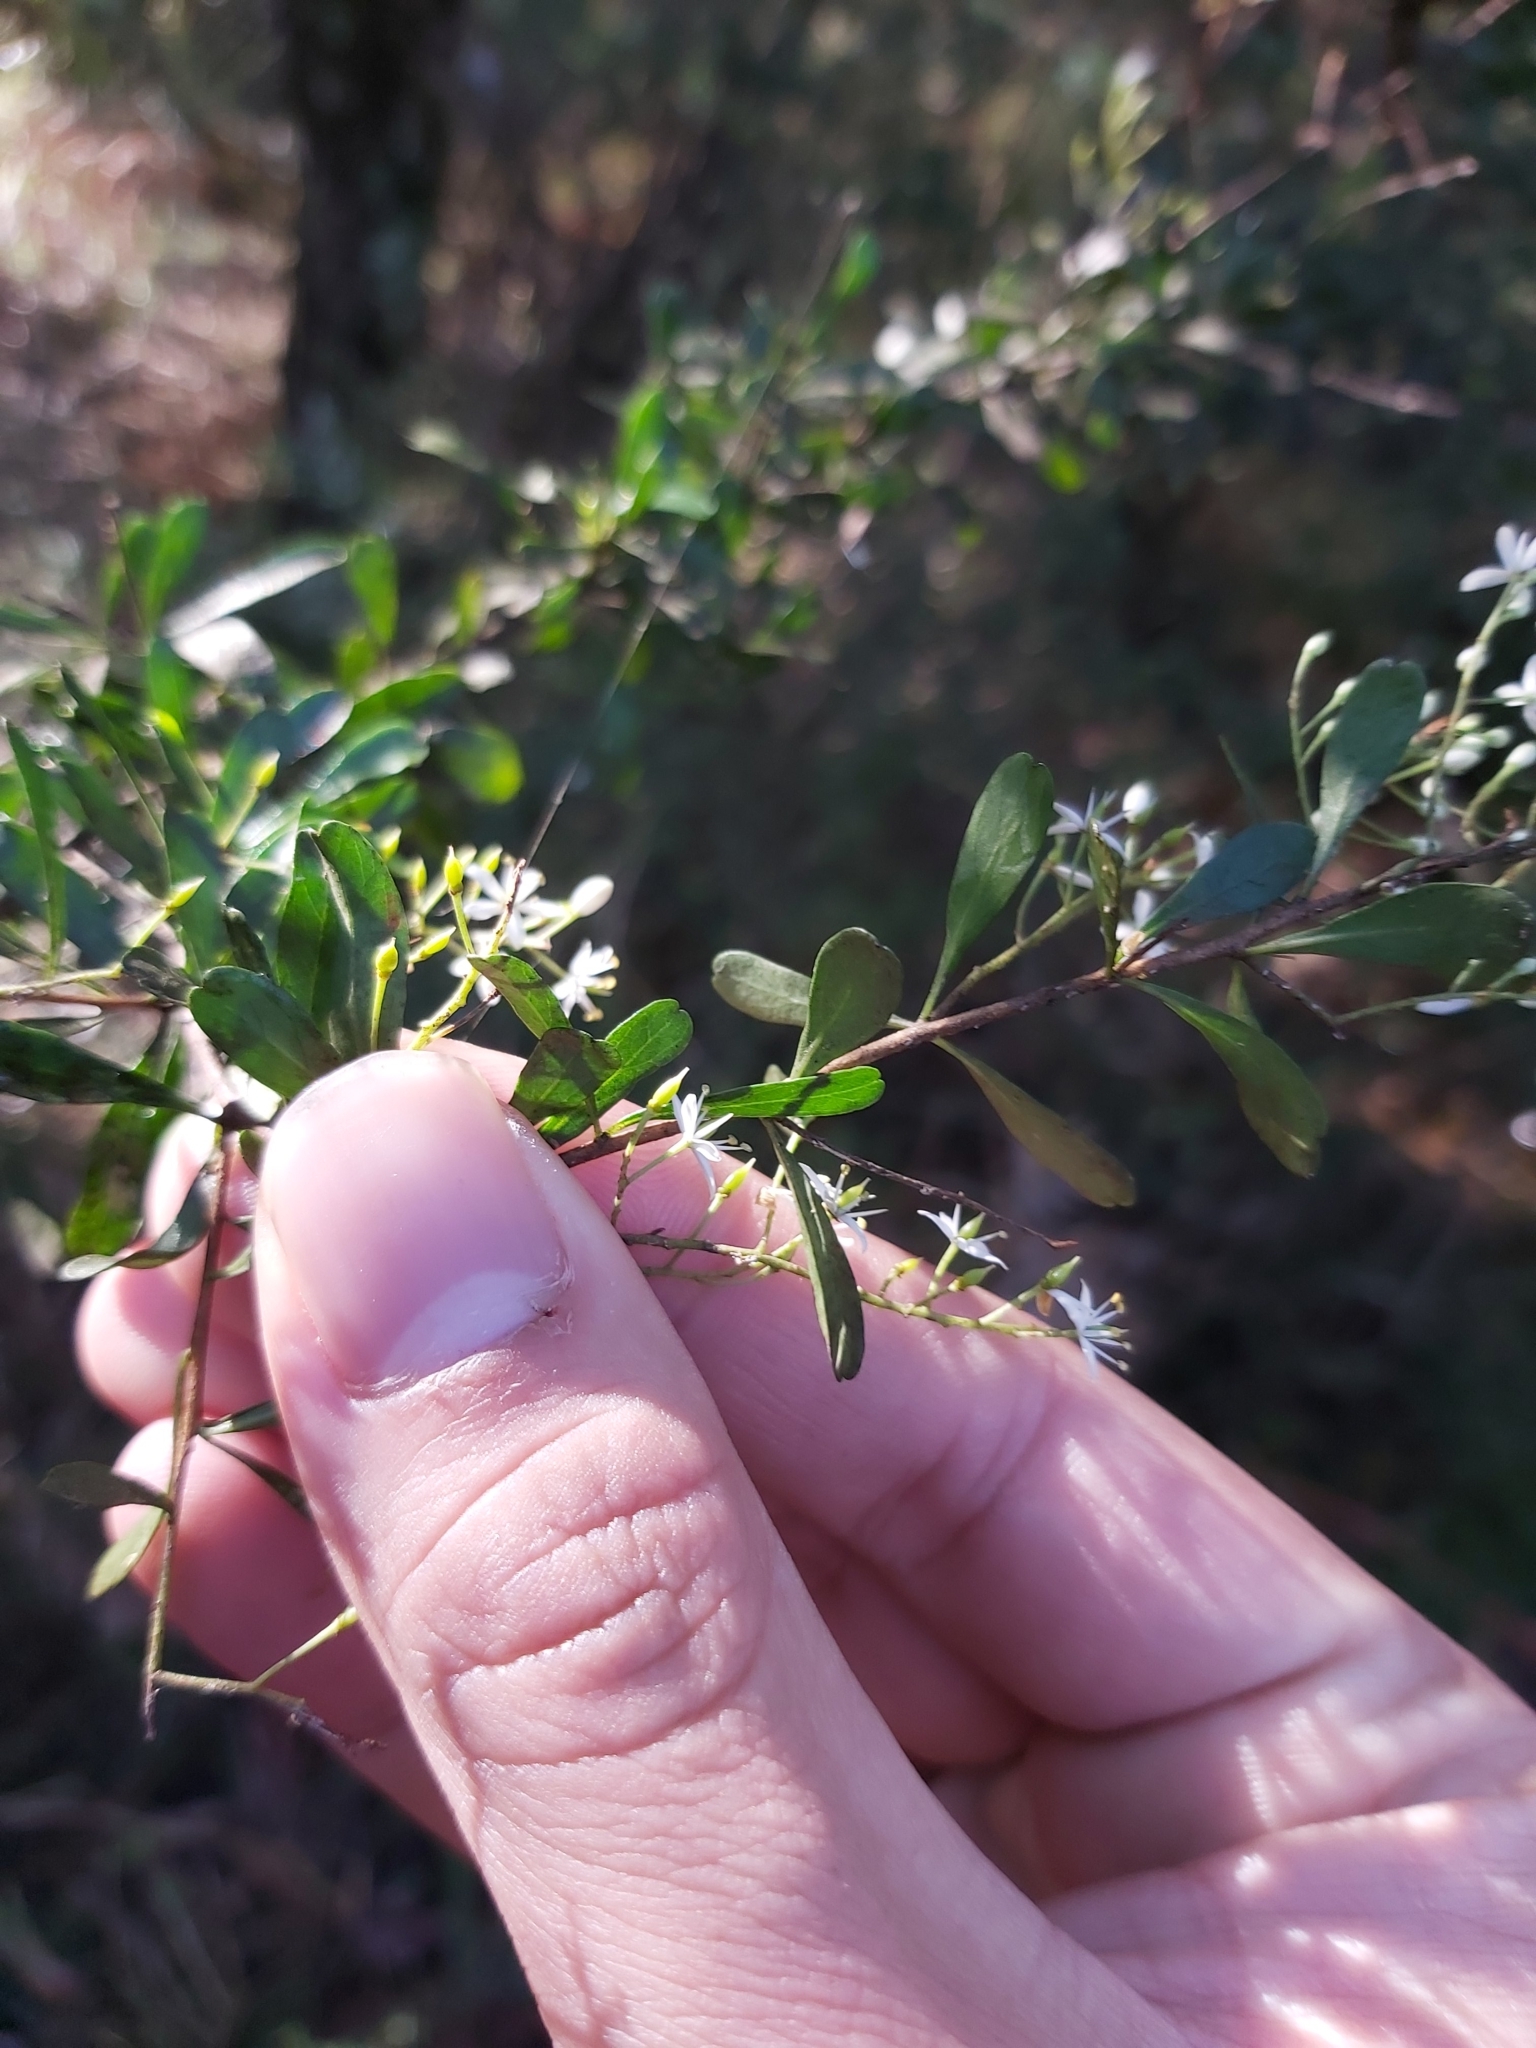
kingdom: Plantae
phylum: Tracheophyta
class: Magnoliopsida
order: Apiales
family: Pittosporaceae
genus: Bursaria
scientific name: Bursaria spinosa
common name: Australian blackthorn
